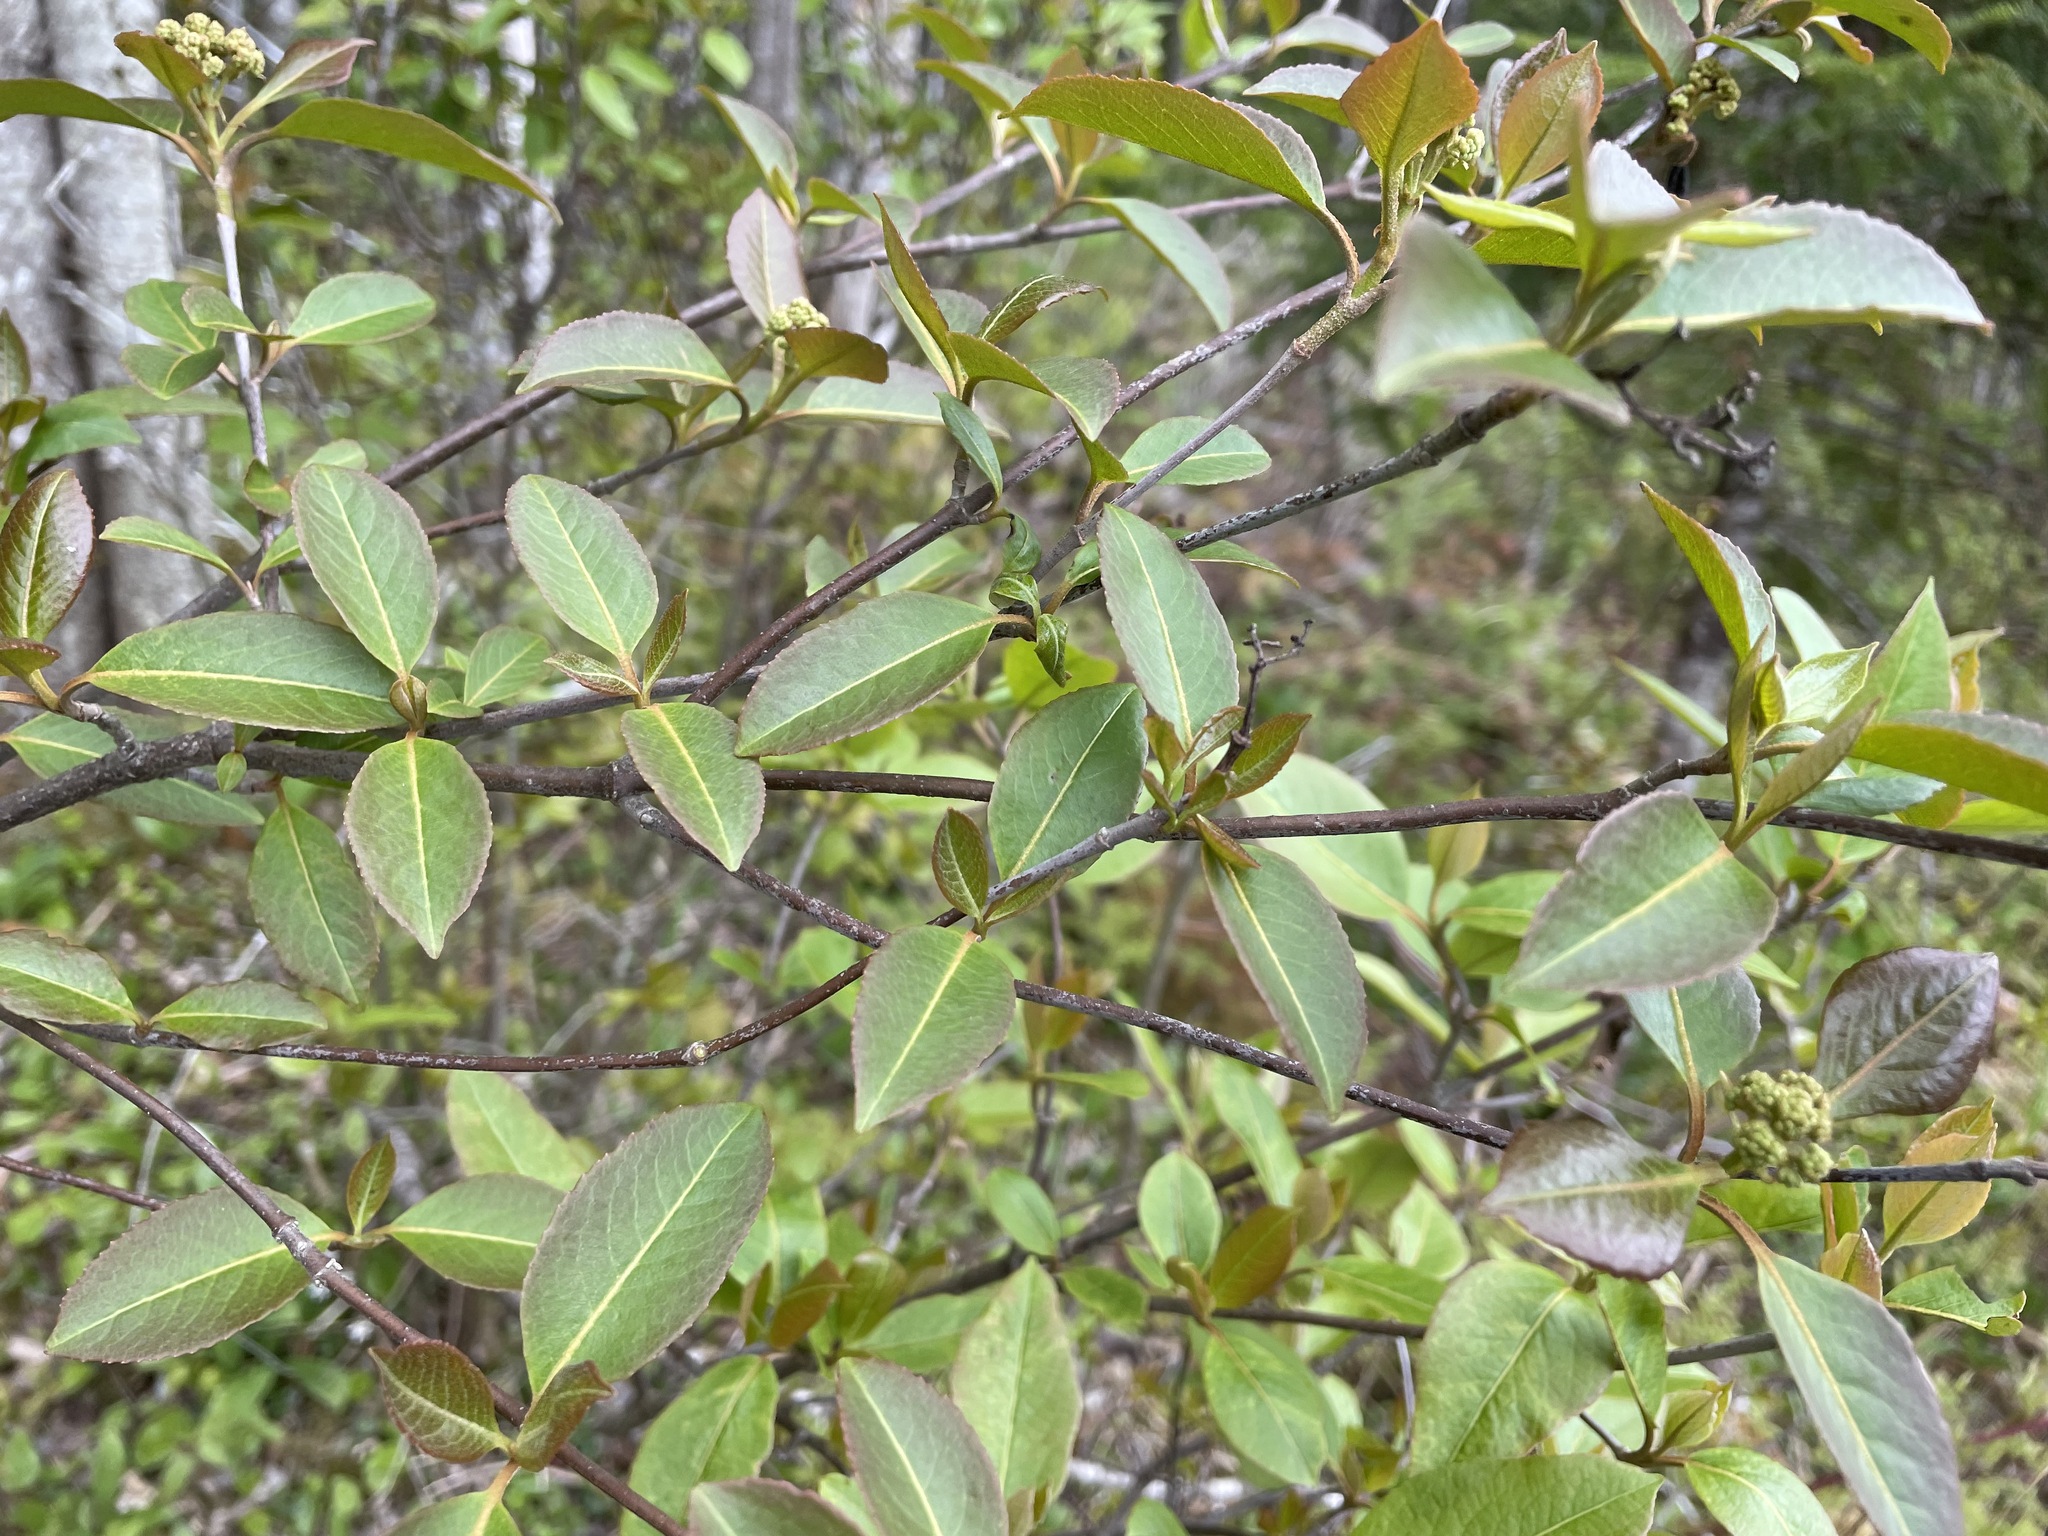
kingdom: Plantae
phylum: Tracheophyta
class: Magnoliopsida
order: Dipsacales
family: Viburnaceae
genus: Viburnum
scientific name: Viburnum cassinoides
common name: Swamp haw
